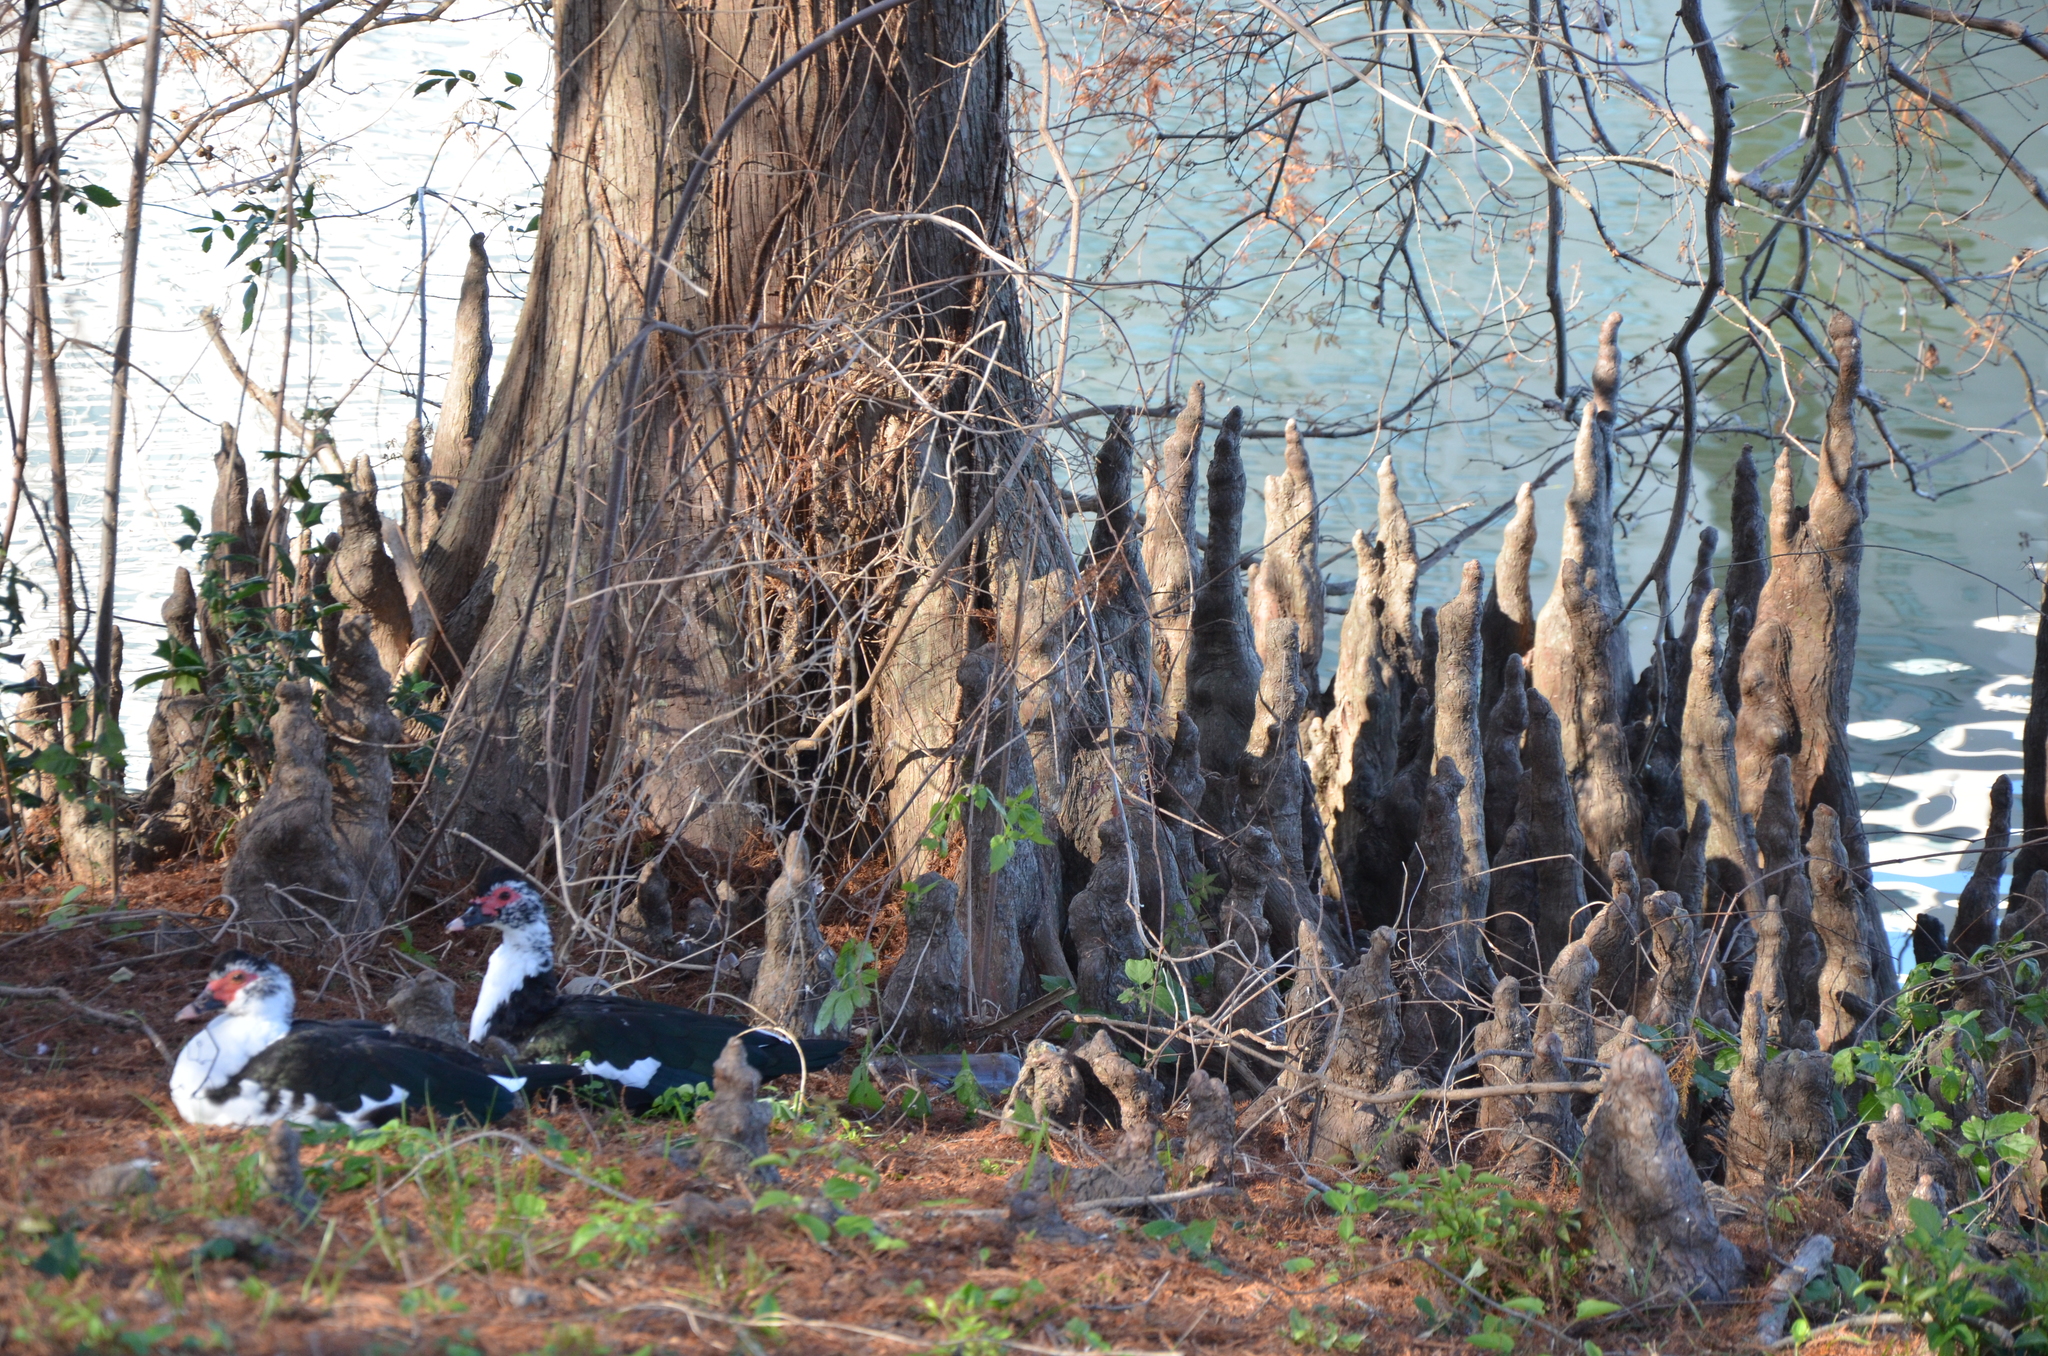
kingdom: Animalia
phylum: Chordata
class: Aves
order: Anseriformes
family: Anatidae
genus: Cairina
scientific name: Cairina moschata
